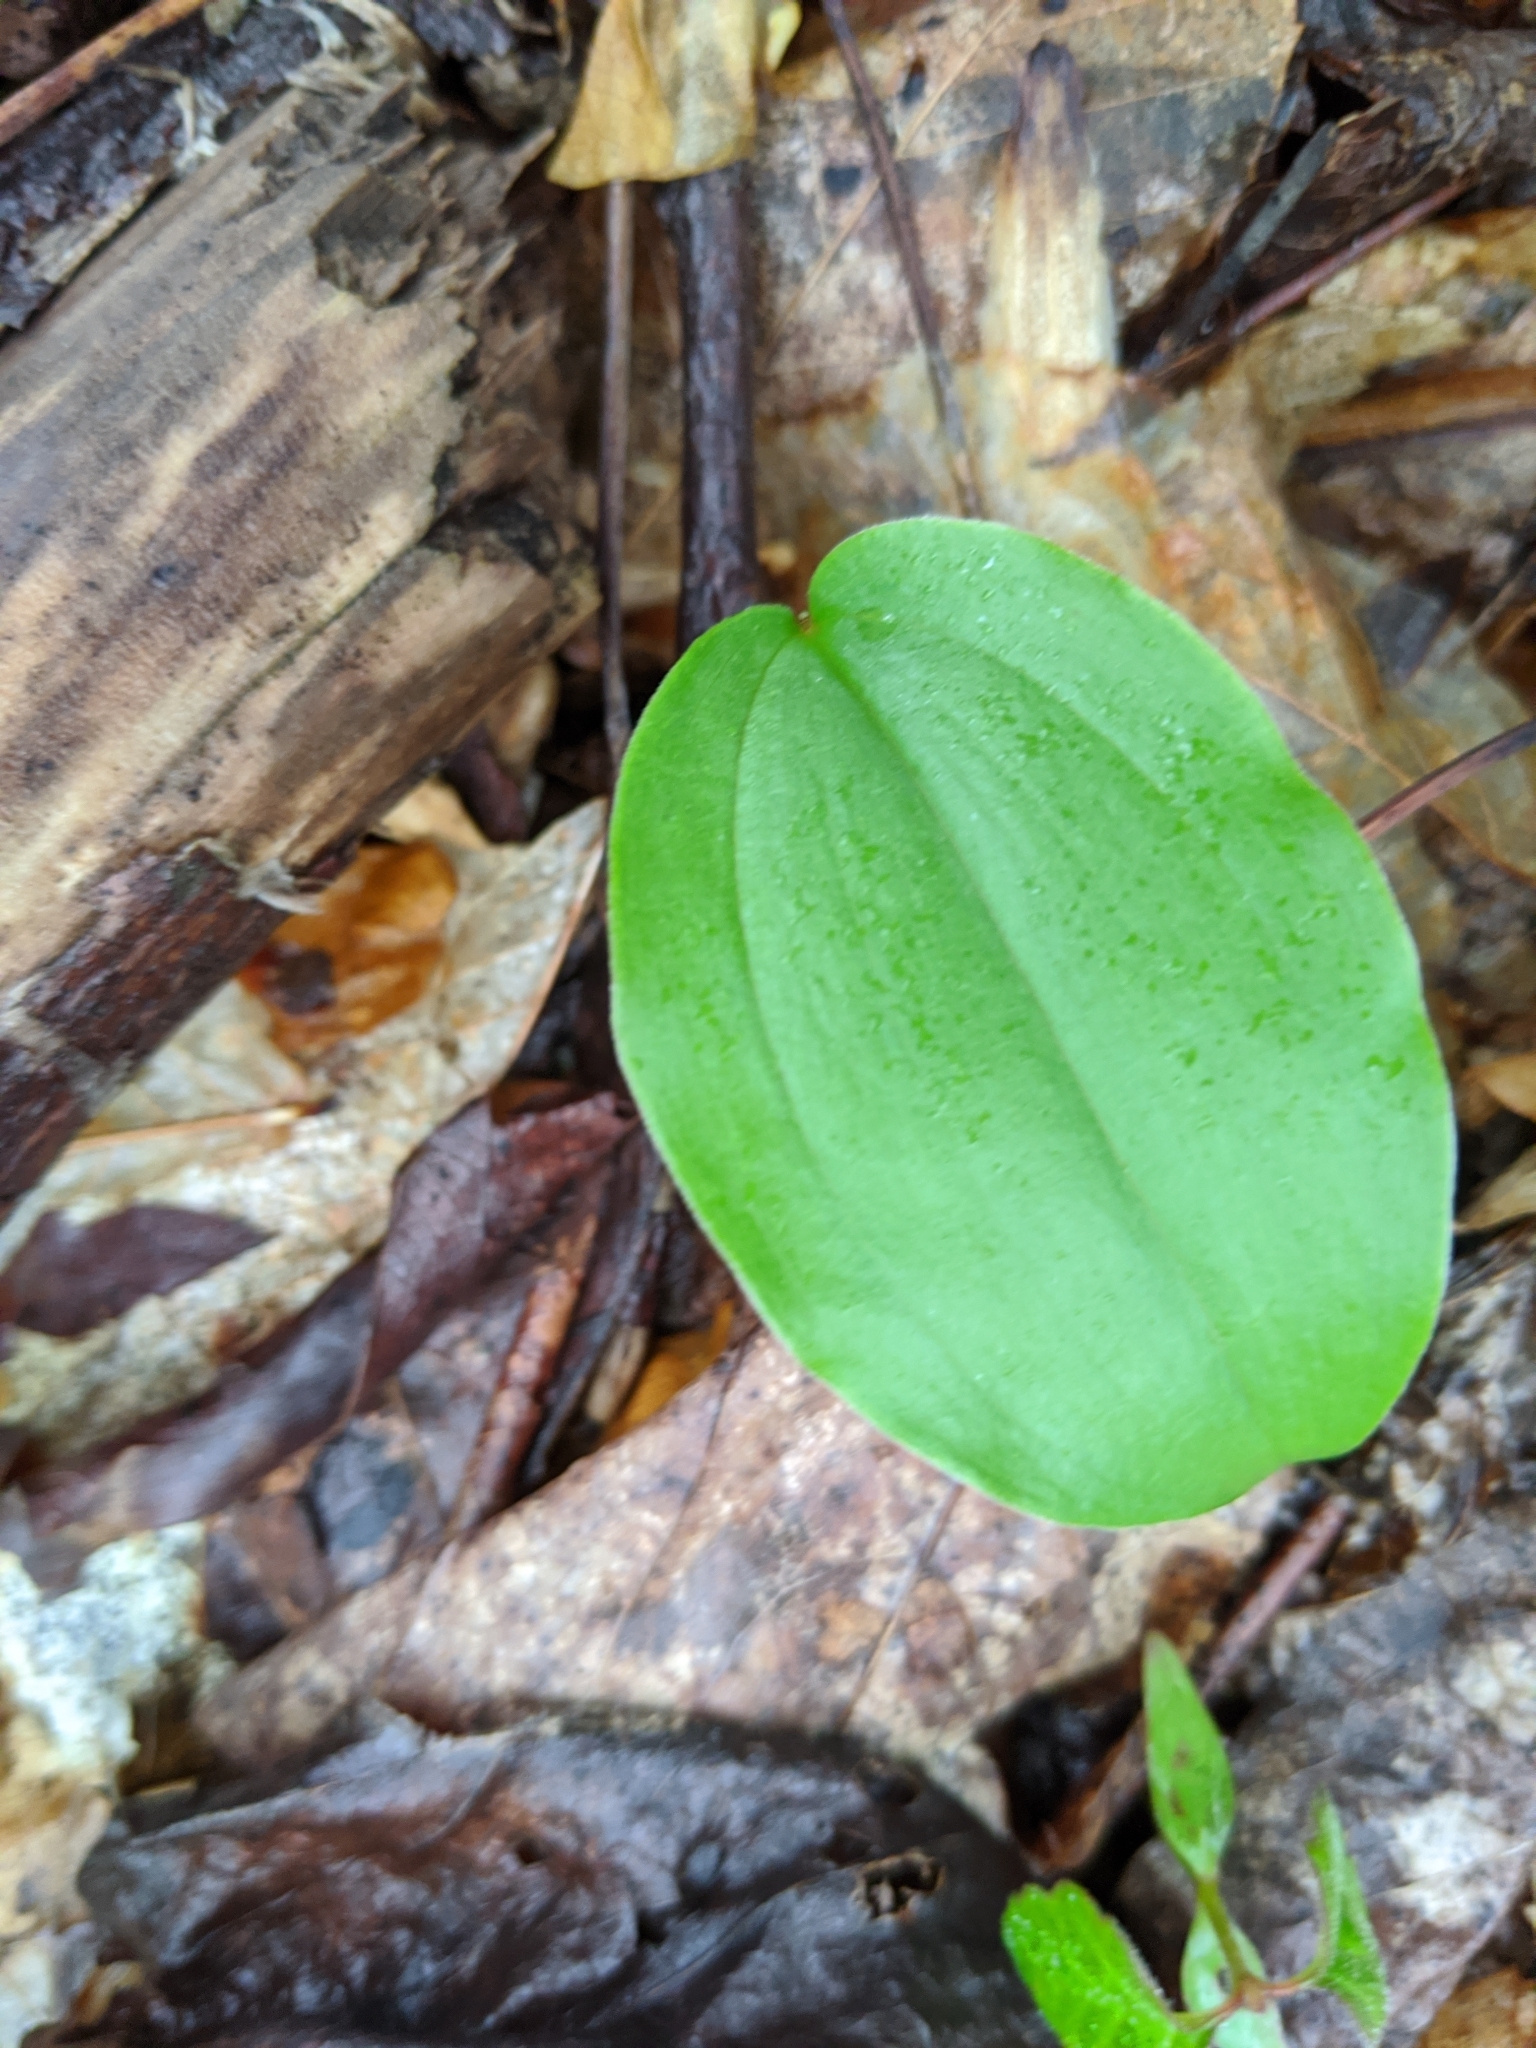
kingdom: Plantae
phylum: Tracheophyta
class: Liliopsida
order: Asparagales
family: Asparagaceae
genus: Maianthemum
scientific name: Maianthemum canadense
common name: False lily-of-the-valley
